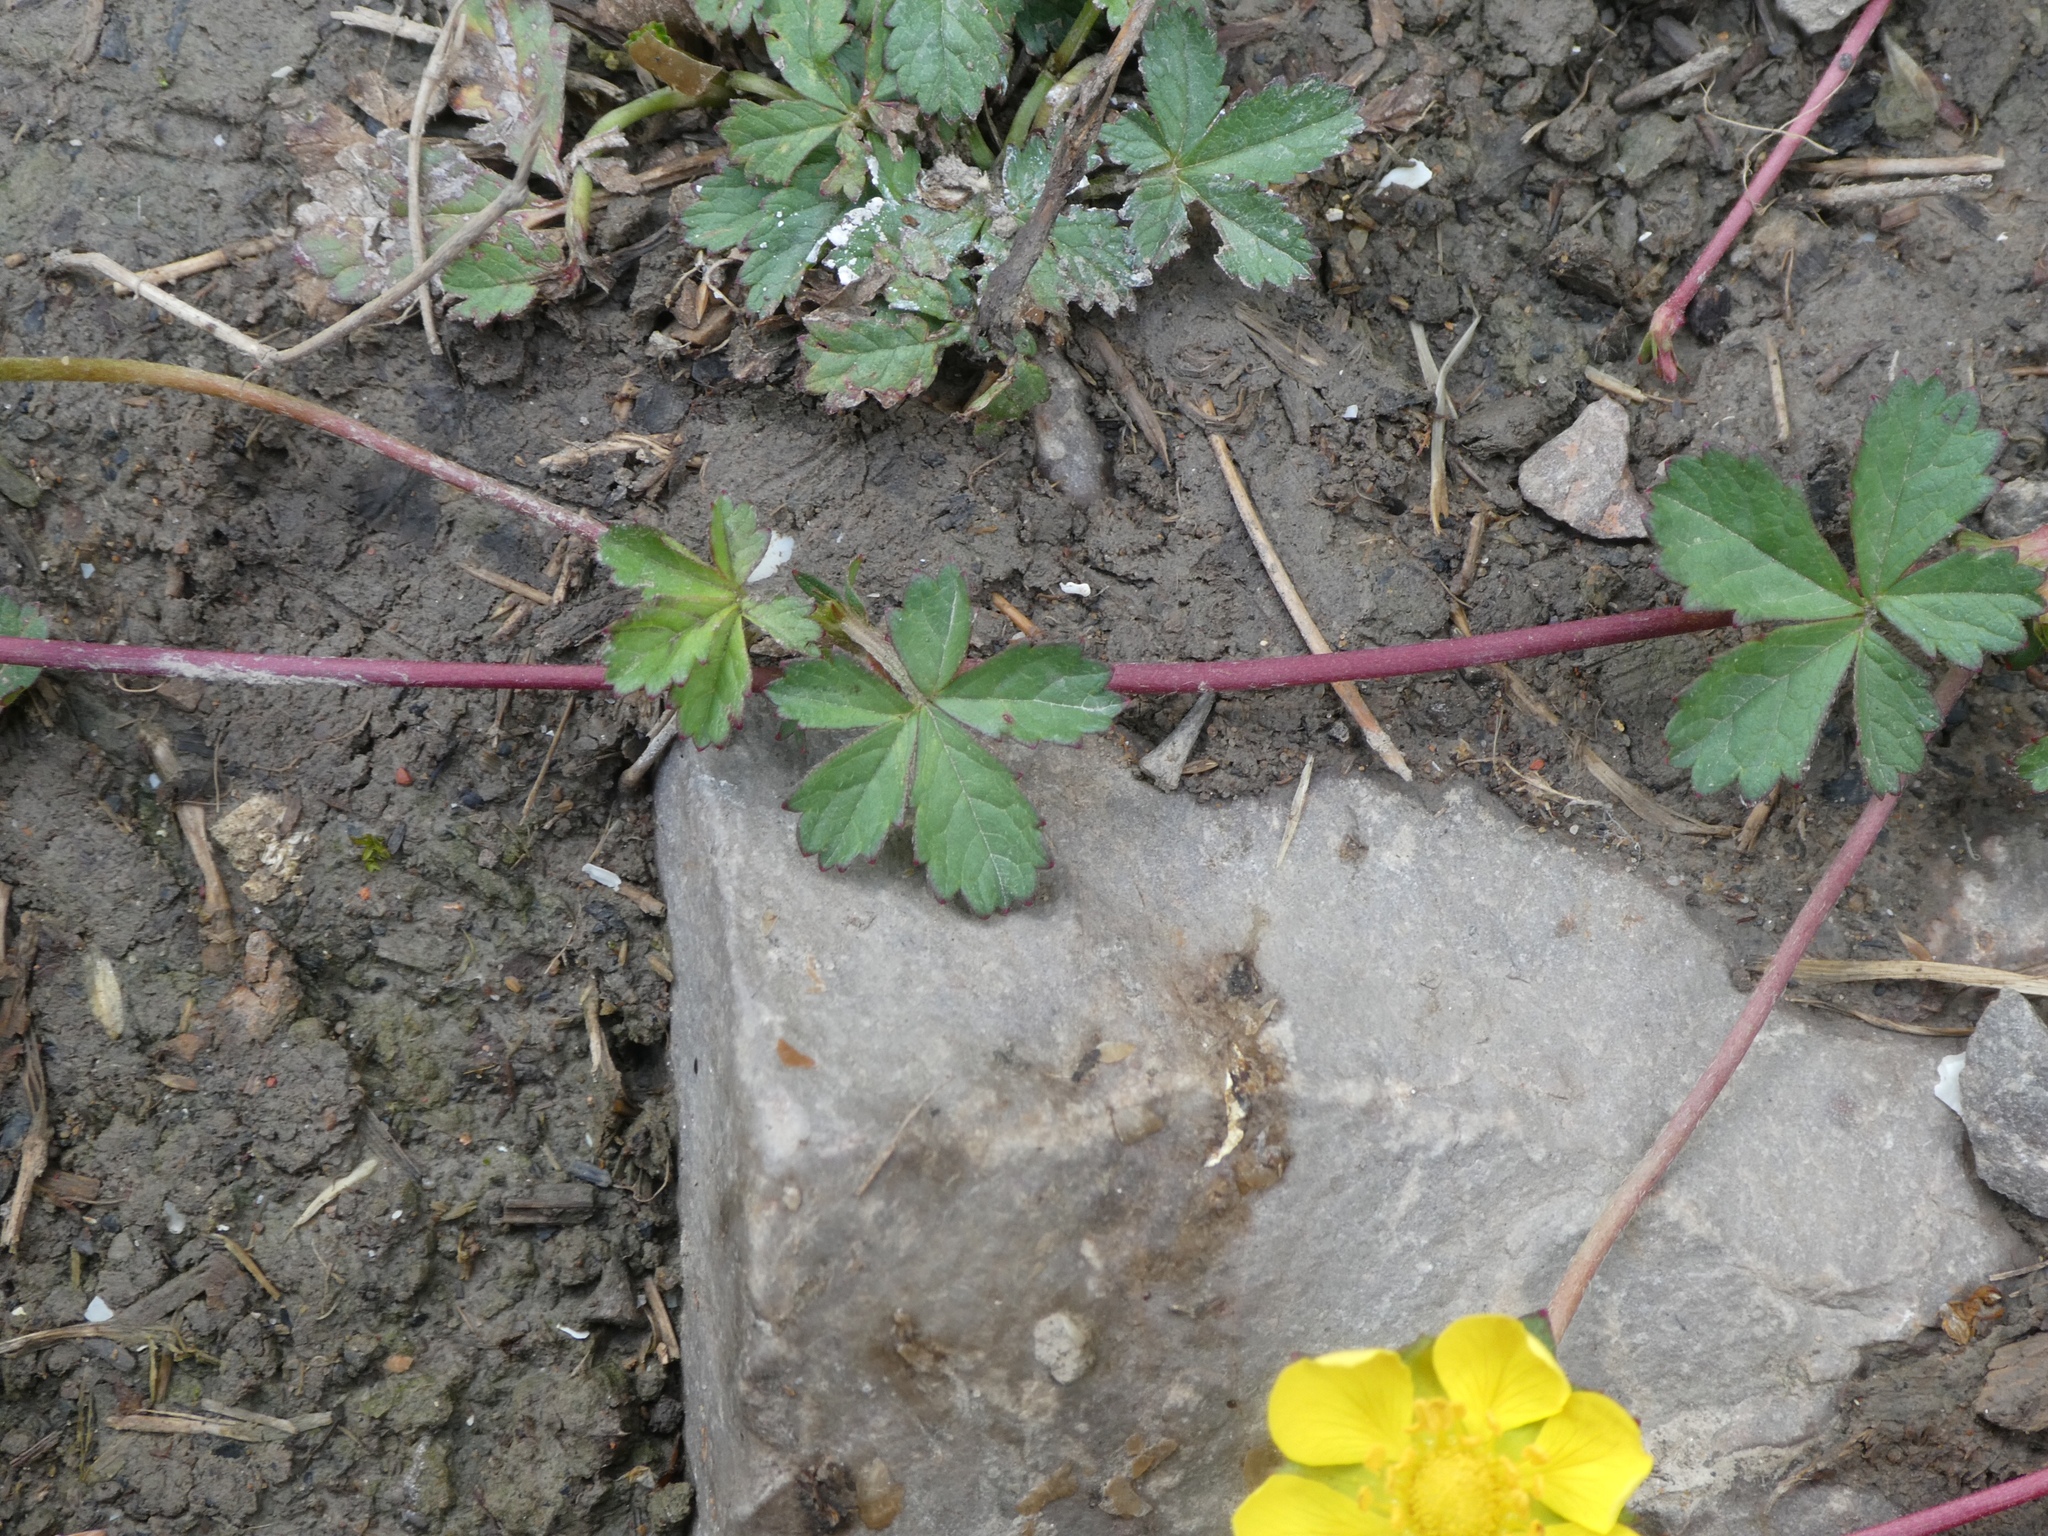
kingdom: Plantae
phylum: Tracheophyta
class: Magnoliopsida
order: Rosales
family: Rosaceae
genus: Potentilla
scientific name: Potentilla reptans
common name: Creeping cinquefoil
